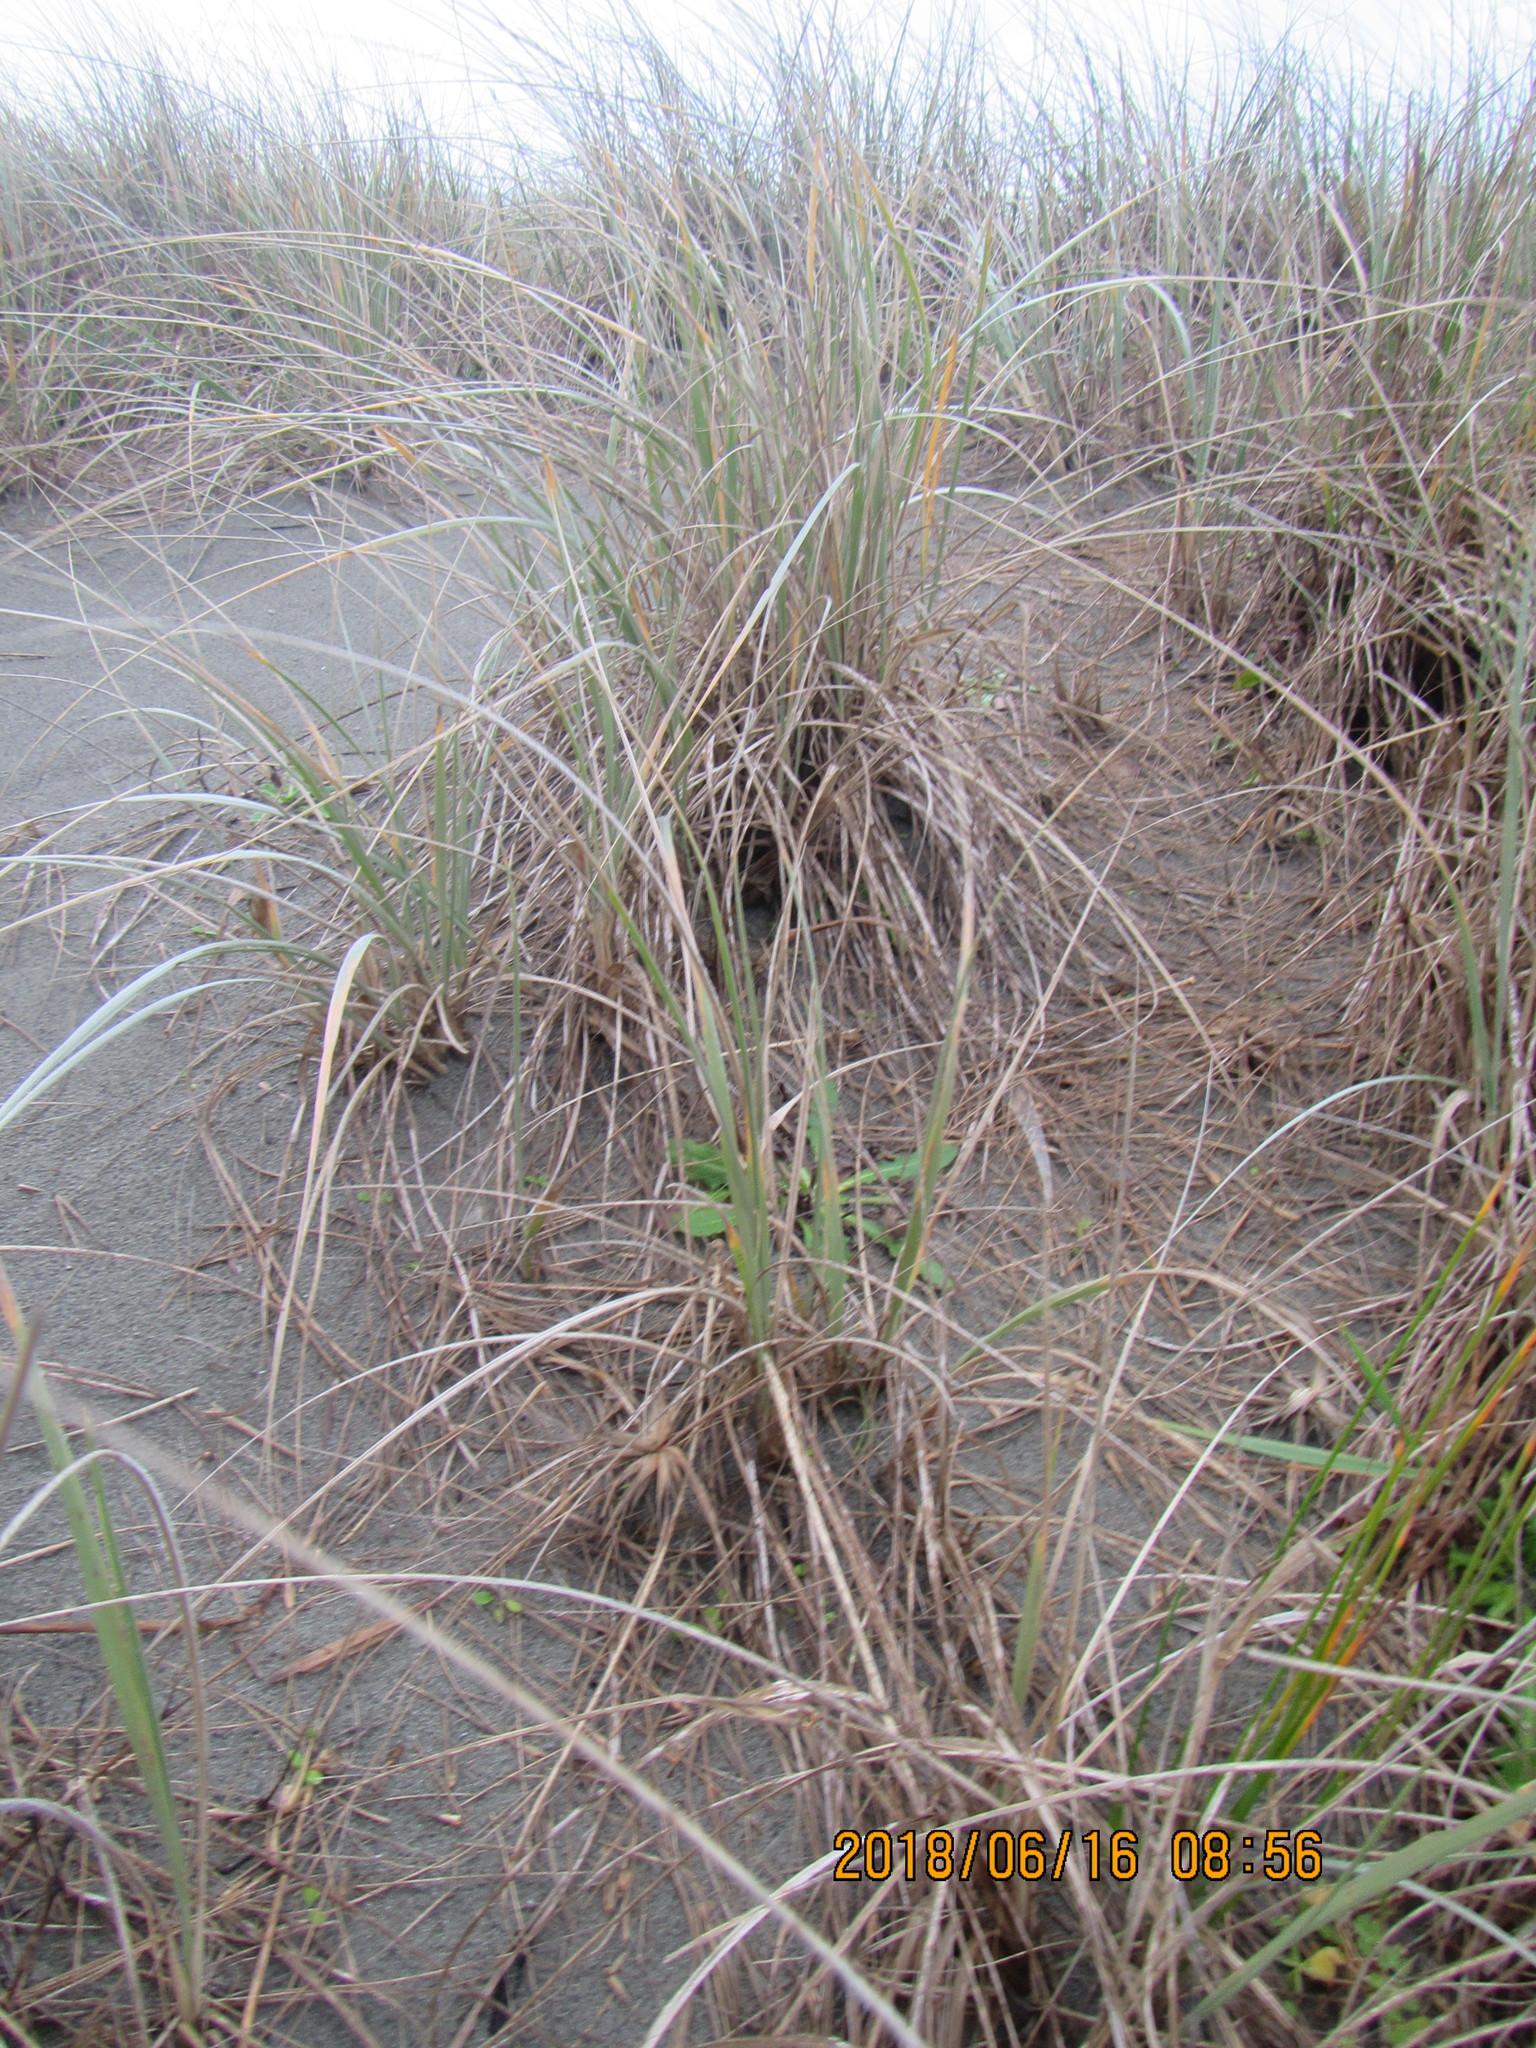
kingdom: Plantae
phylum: Tracheophyta
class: Liliopsida
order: Poales
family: Poaceae
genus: Spinifex
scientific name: Spinifex sericeus
